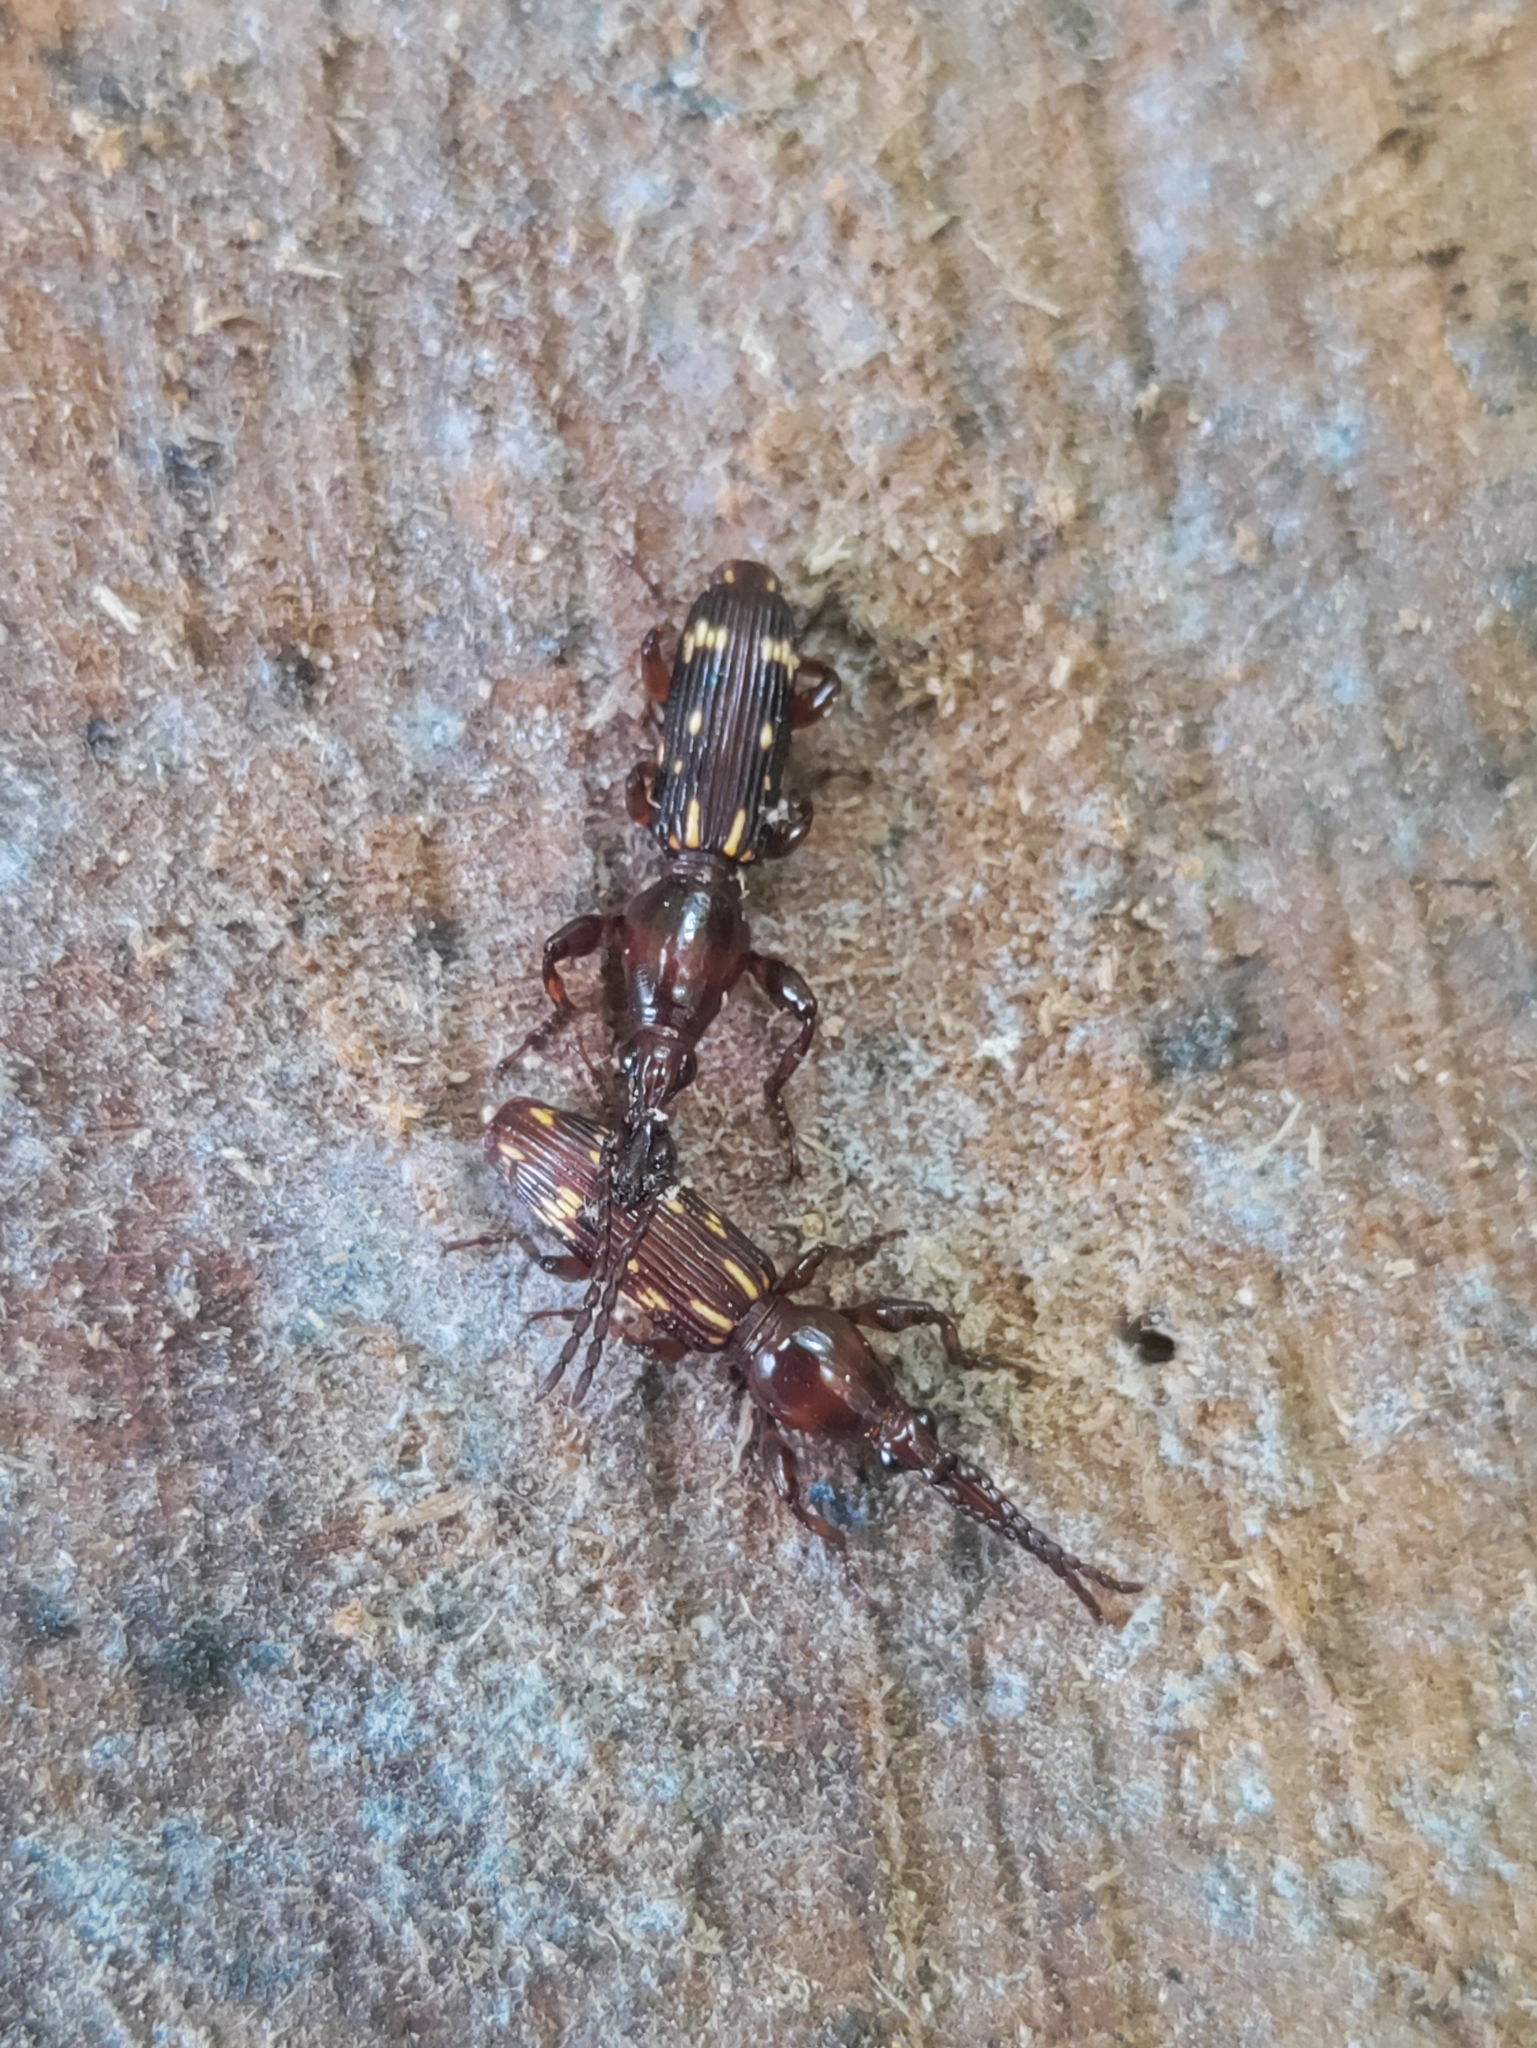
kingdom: Animalia
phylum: Arthropoda
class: Insecta
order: Coleoptera
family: Brentidae
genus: Arrenodes
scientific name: Arrenodes minutus
